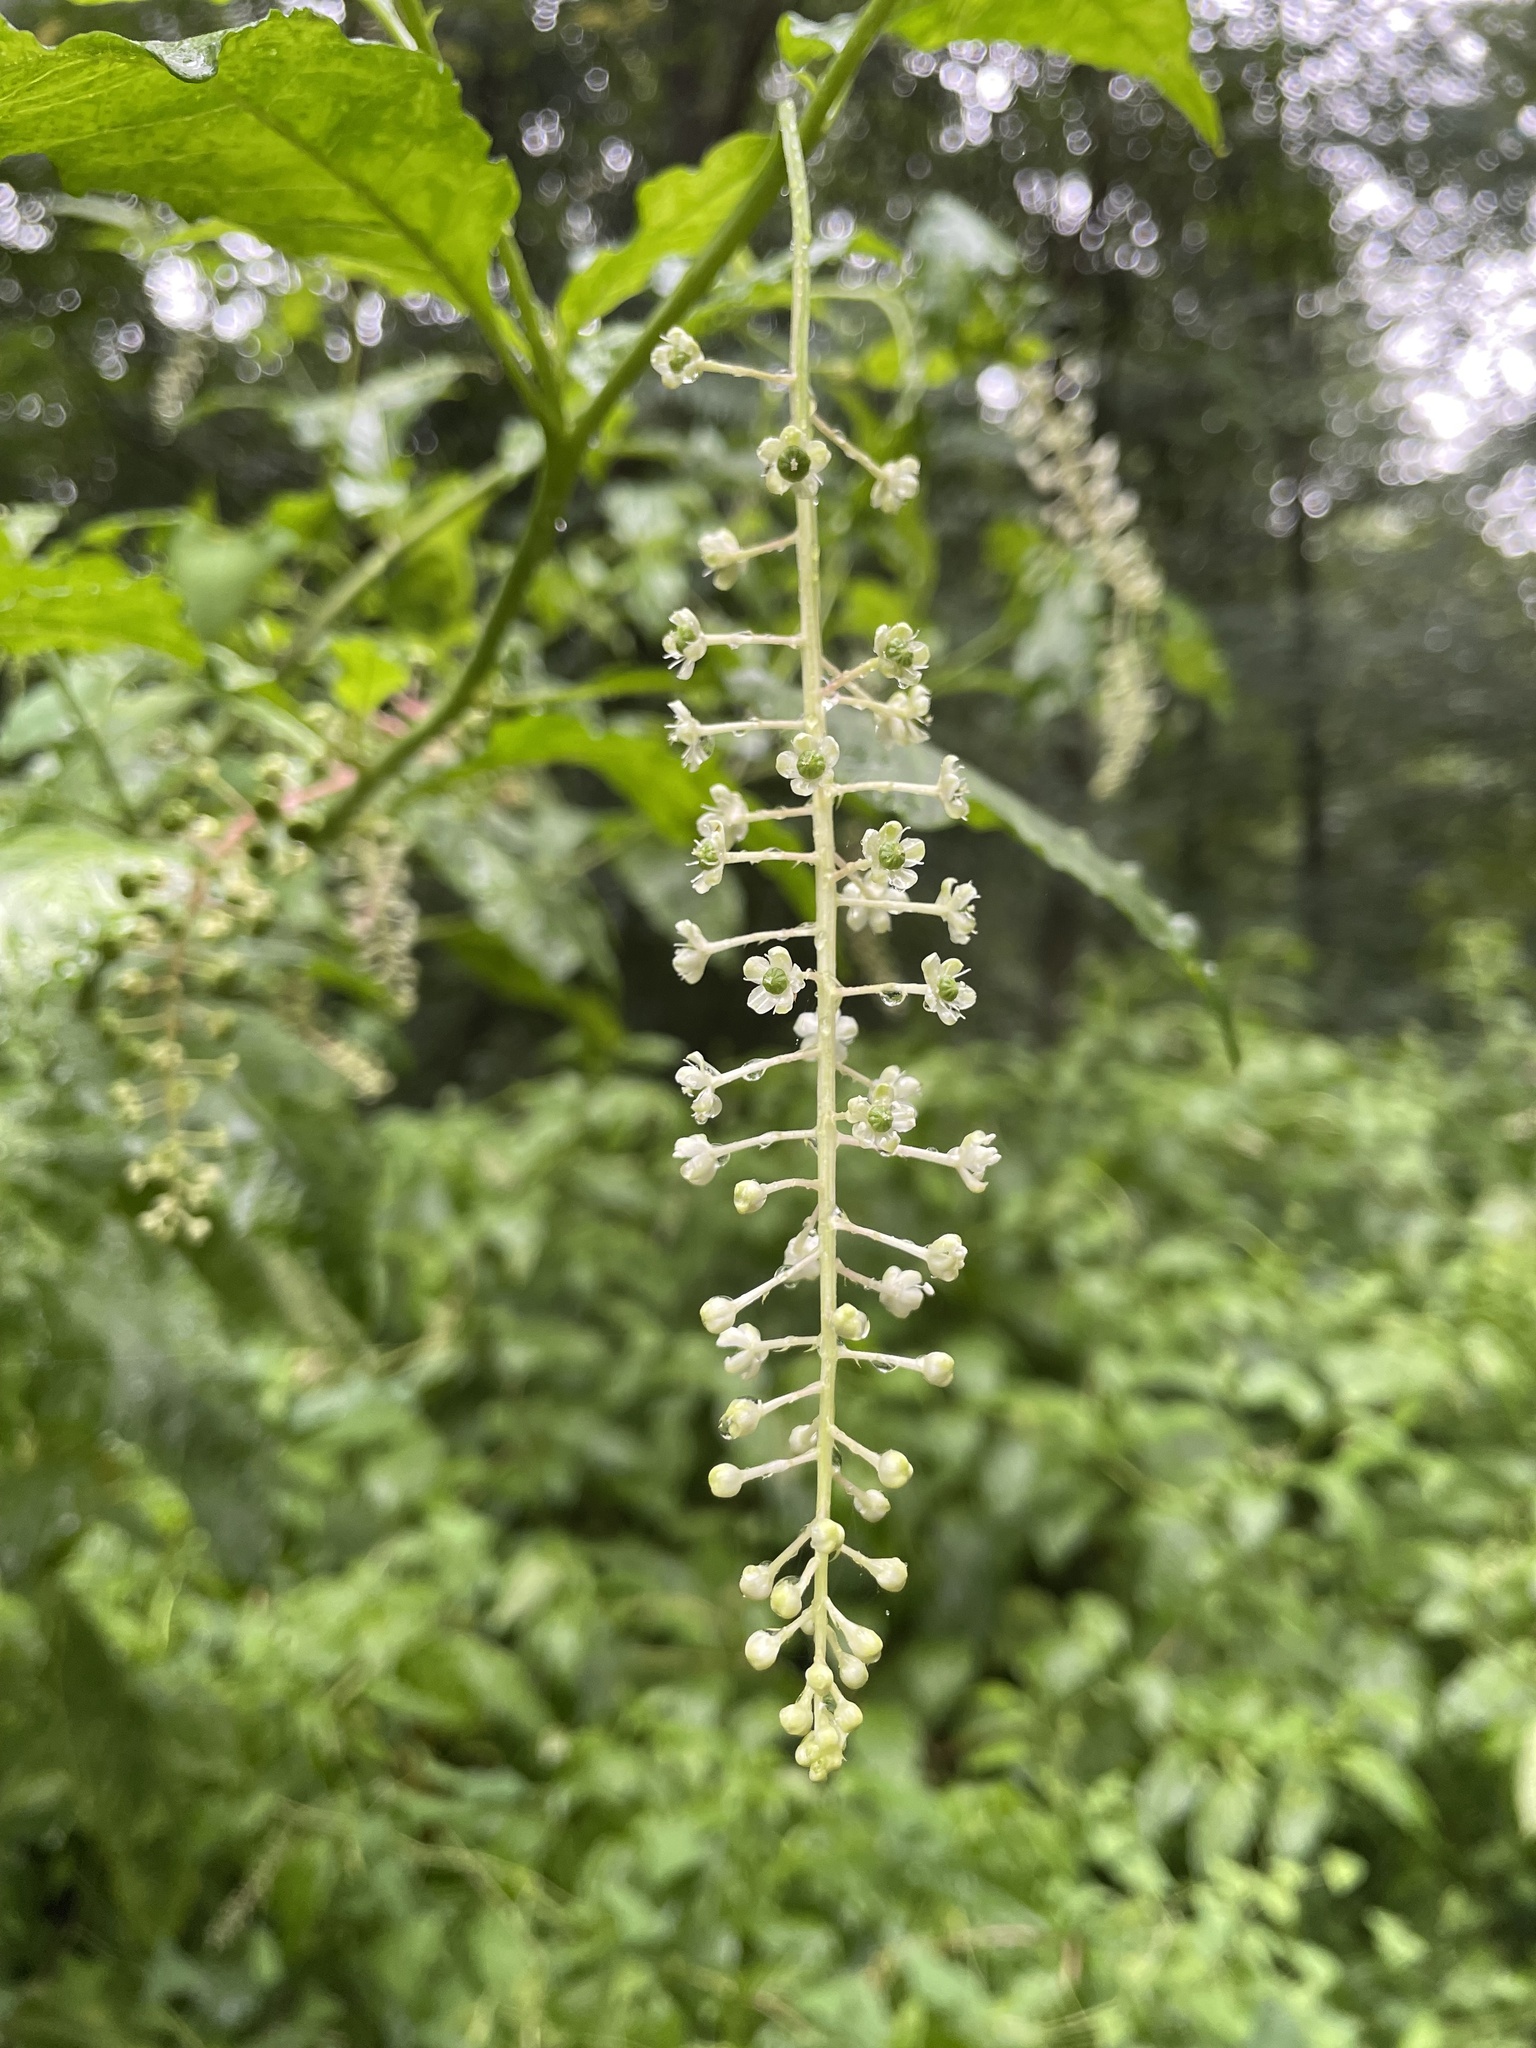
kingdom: Plantae
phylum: Tracheophyta
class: Magnoliopsida
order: Caryophyllales
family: Phytolaccaceae
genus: Phytolacca
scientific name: Phytolacca americana
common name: American pokeweed
